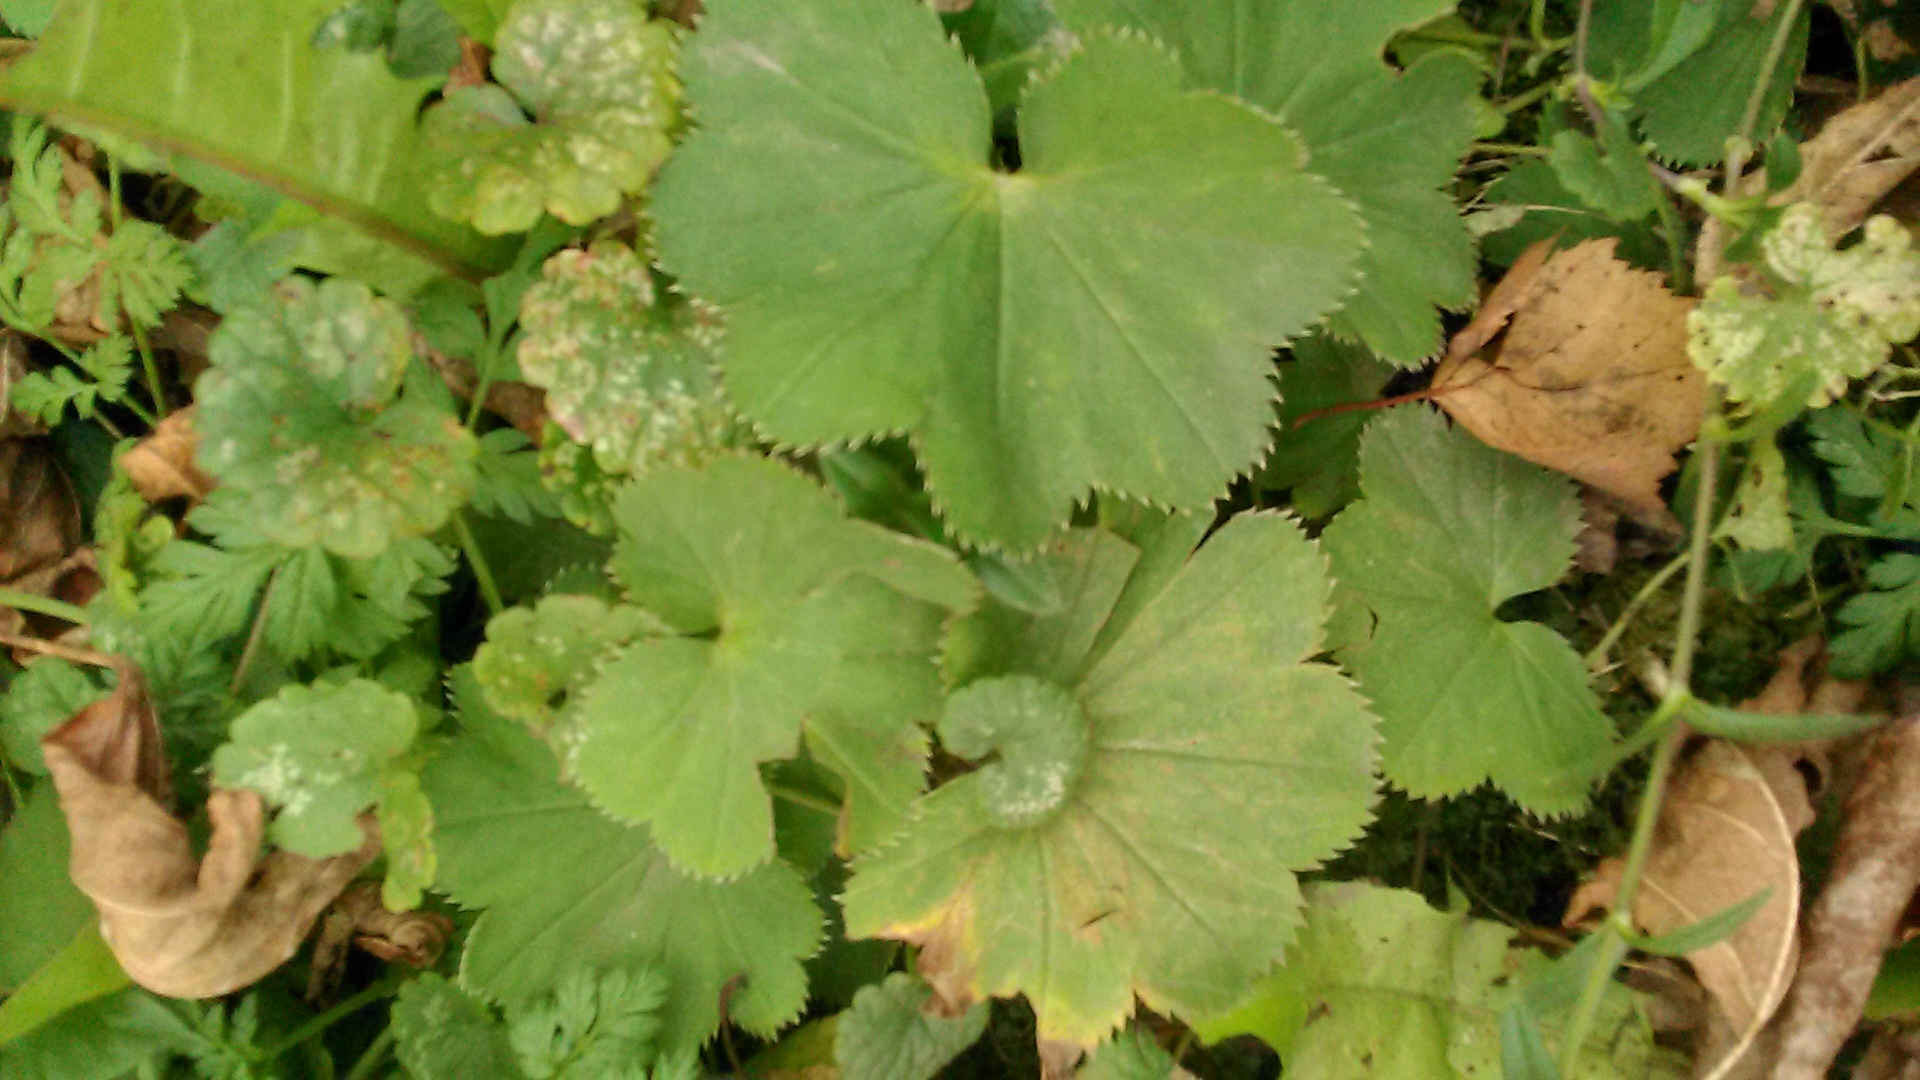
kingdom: Plantae
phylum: Tracheophyta
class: Magnoliopsida
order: Rosales
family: Rosaceae
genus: Alchemilla
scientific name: Alchemilla
